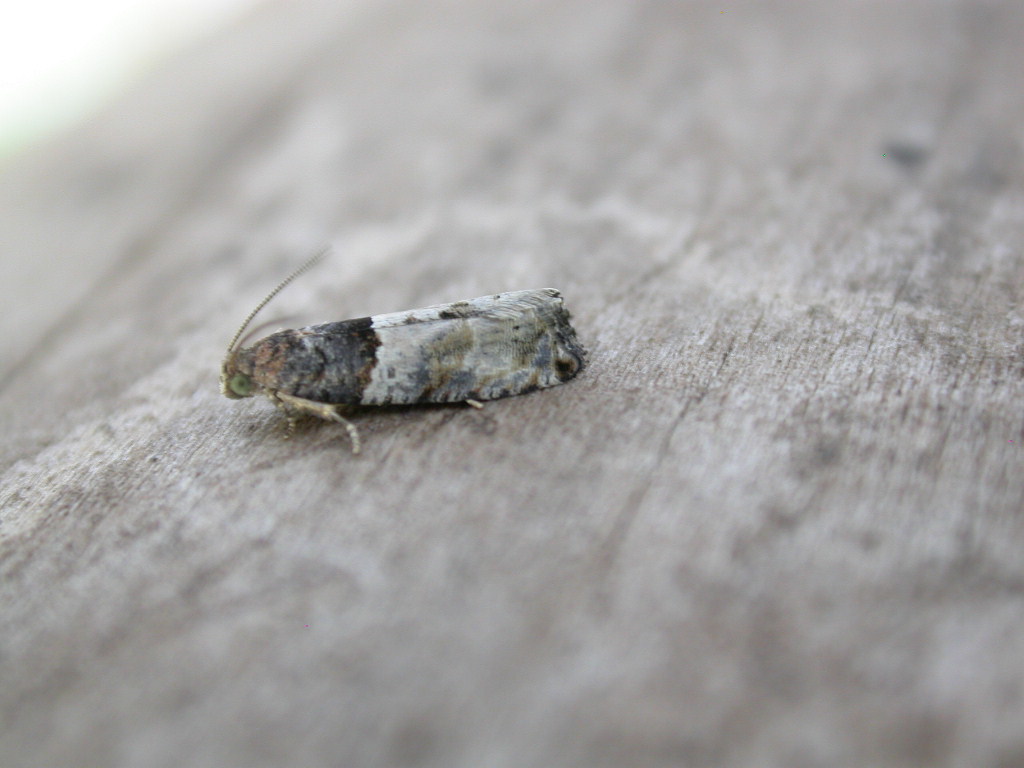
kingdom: Animalia
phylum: Arthropoda
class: Insecta
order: Lepidoptera
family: Tortricidae
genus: Gypsonoma
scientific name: Gypsonoma aceriana
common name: Poplar twig borer
